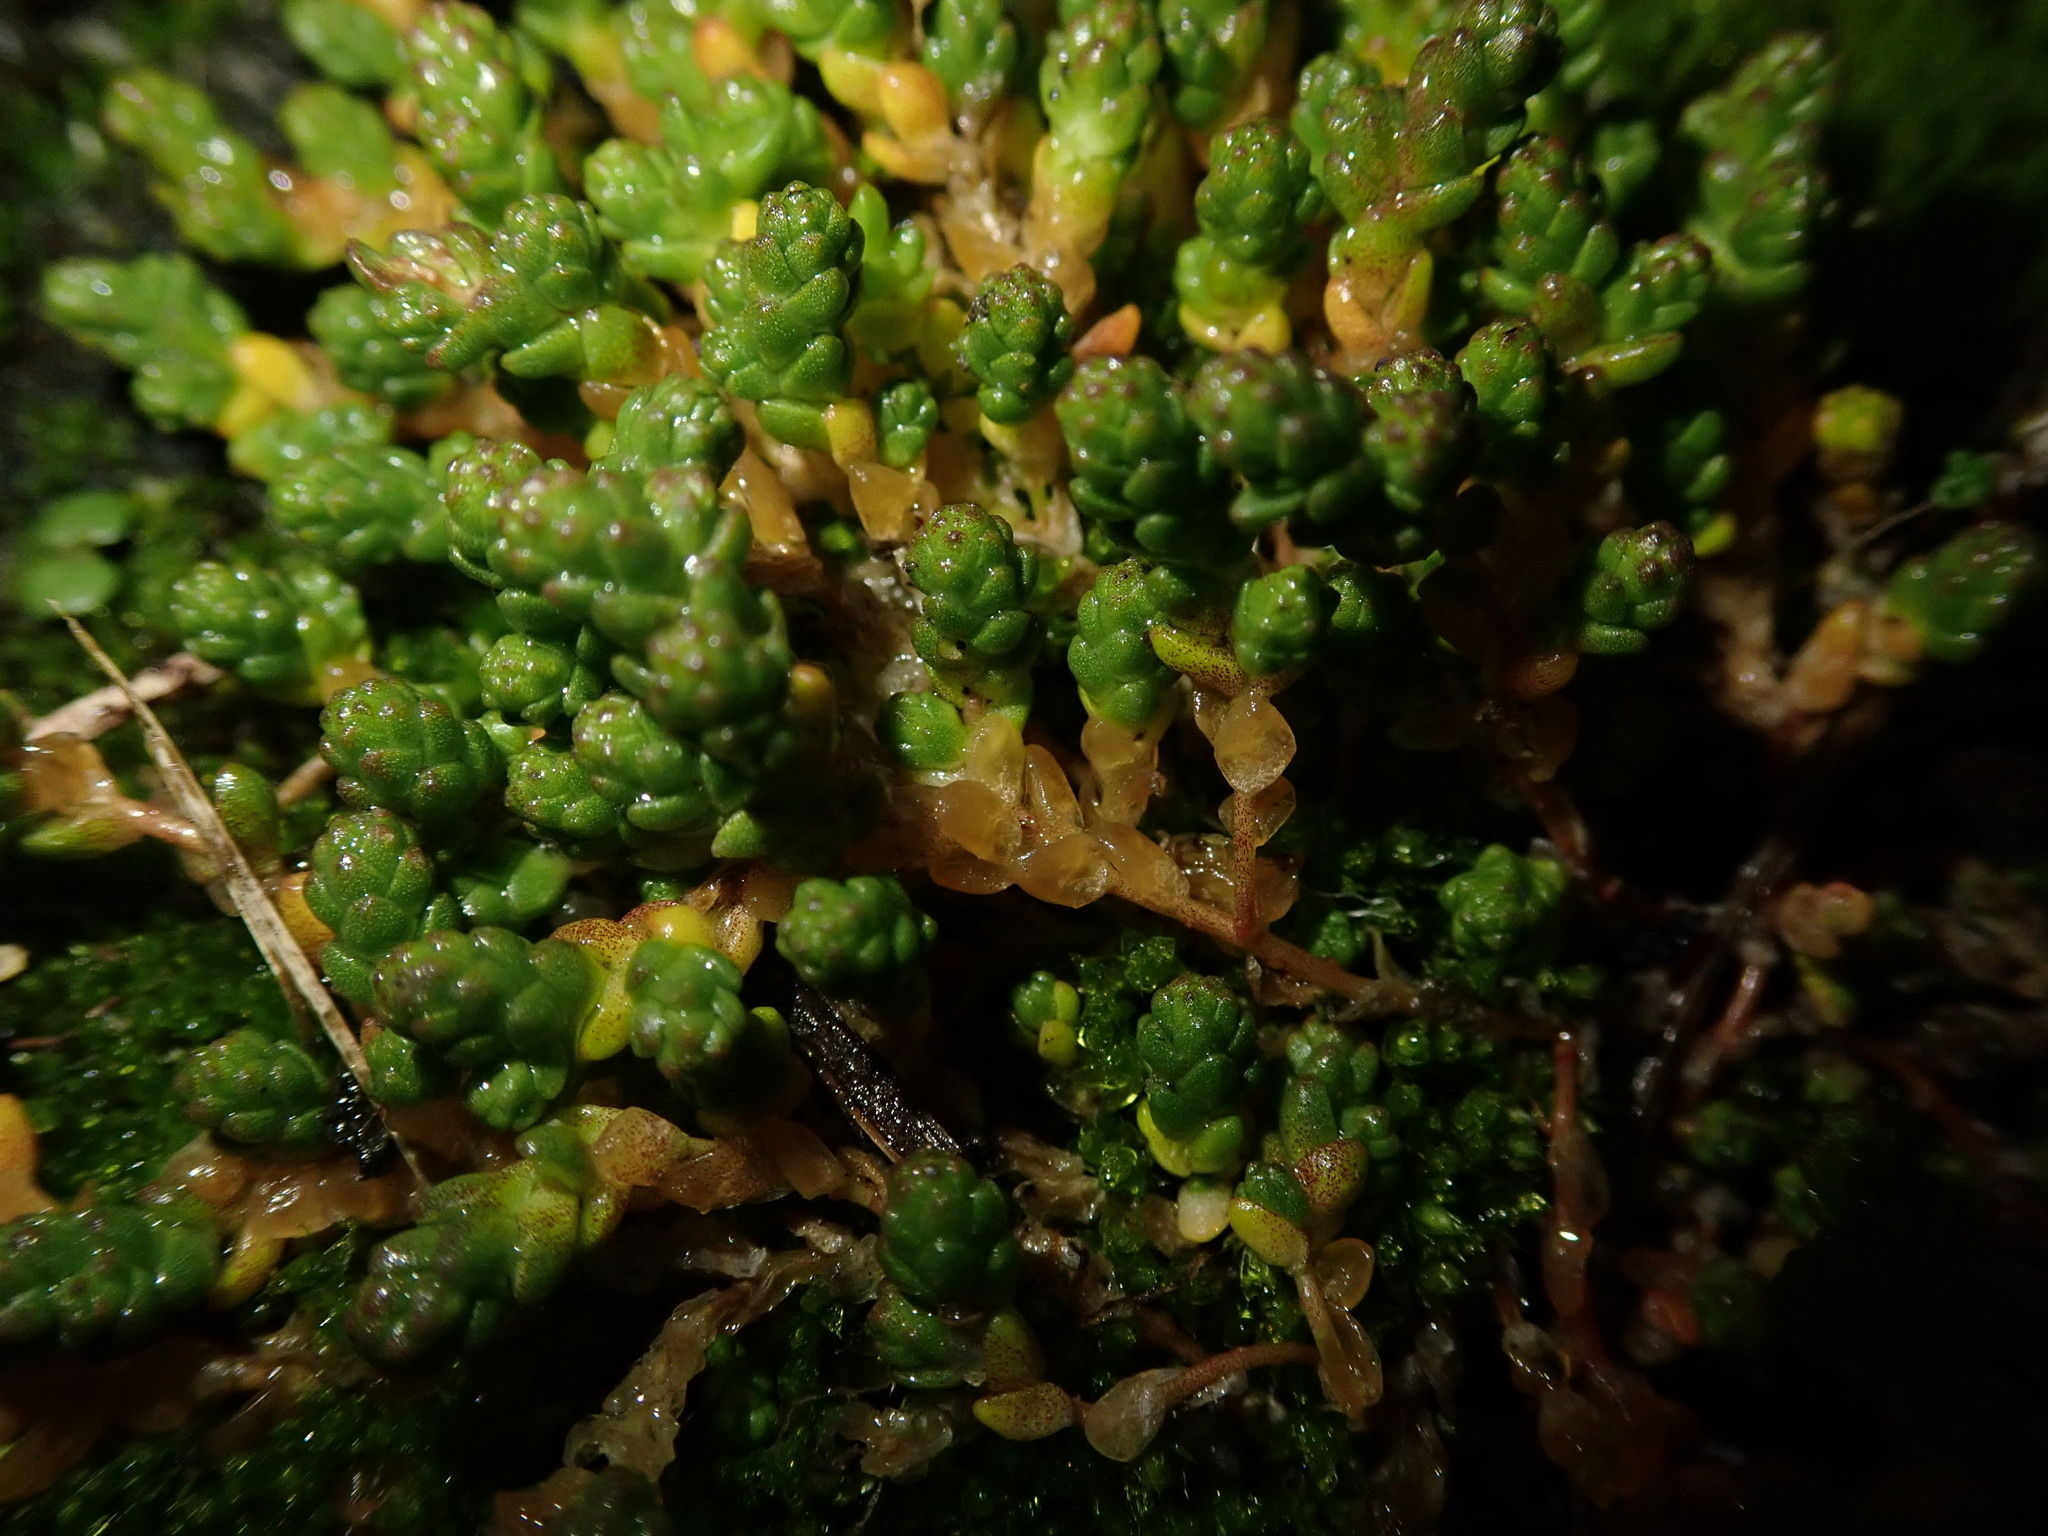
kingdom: Plantae
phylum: Tracheophyta
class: Magnoliopsida
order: Saxifragales
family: Crassulaceae
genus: Sedum
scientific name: Sedum acre
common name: Biting stonecrop
